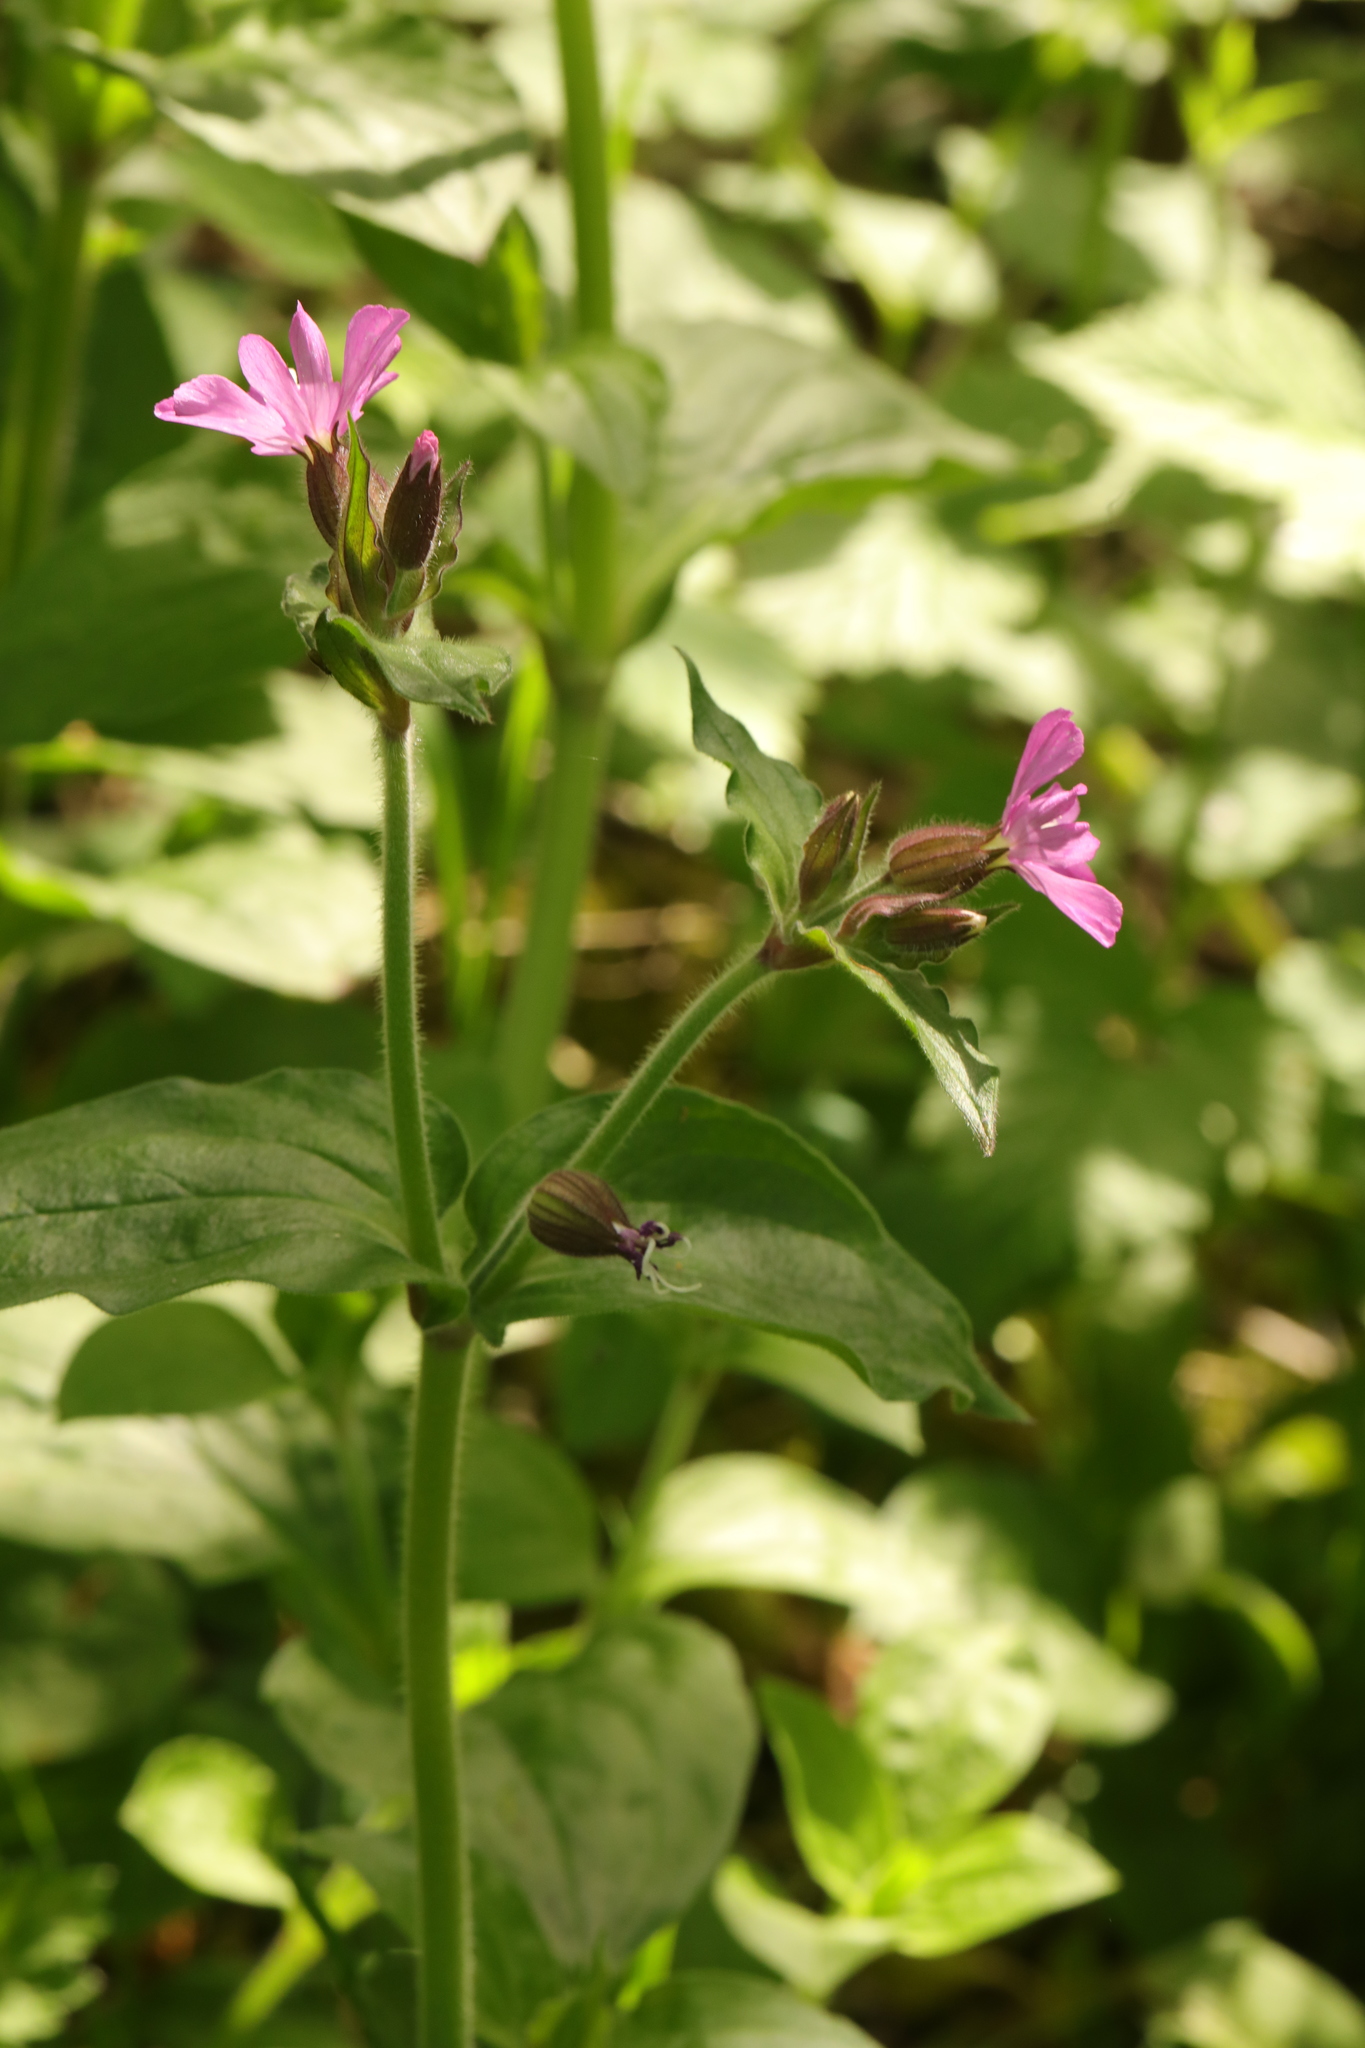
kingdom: Plantae
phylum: Tracheophyta
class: Magnoliopsida
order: Caryophyllales
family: Caryophyllaceae
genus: Silene
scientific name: Silene dioica
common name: Red campion
